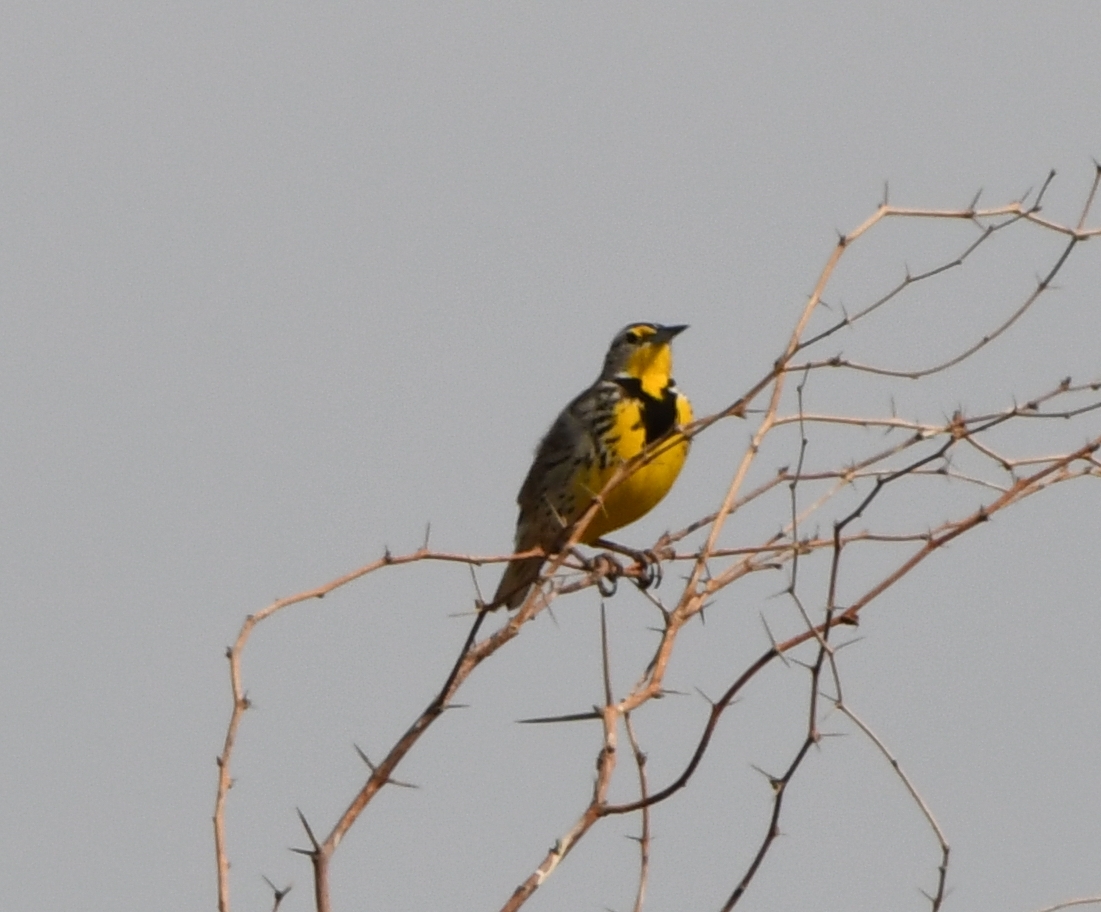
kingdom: Animalia
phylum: Chordata
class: Aves
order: Passeriformes
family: Icteridae
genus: Sturnella
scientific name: Sturnella neglecta
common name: Western meadowlark
